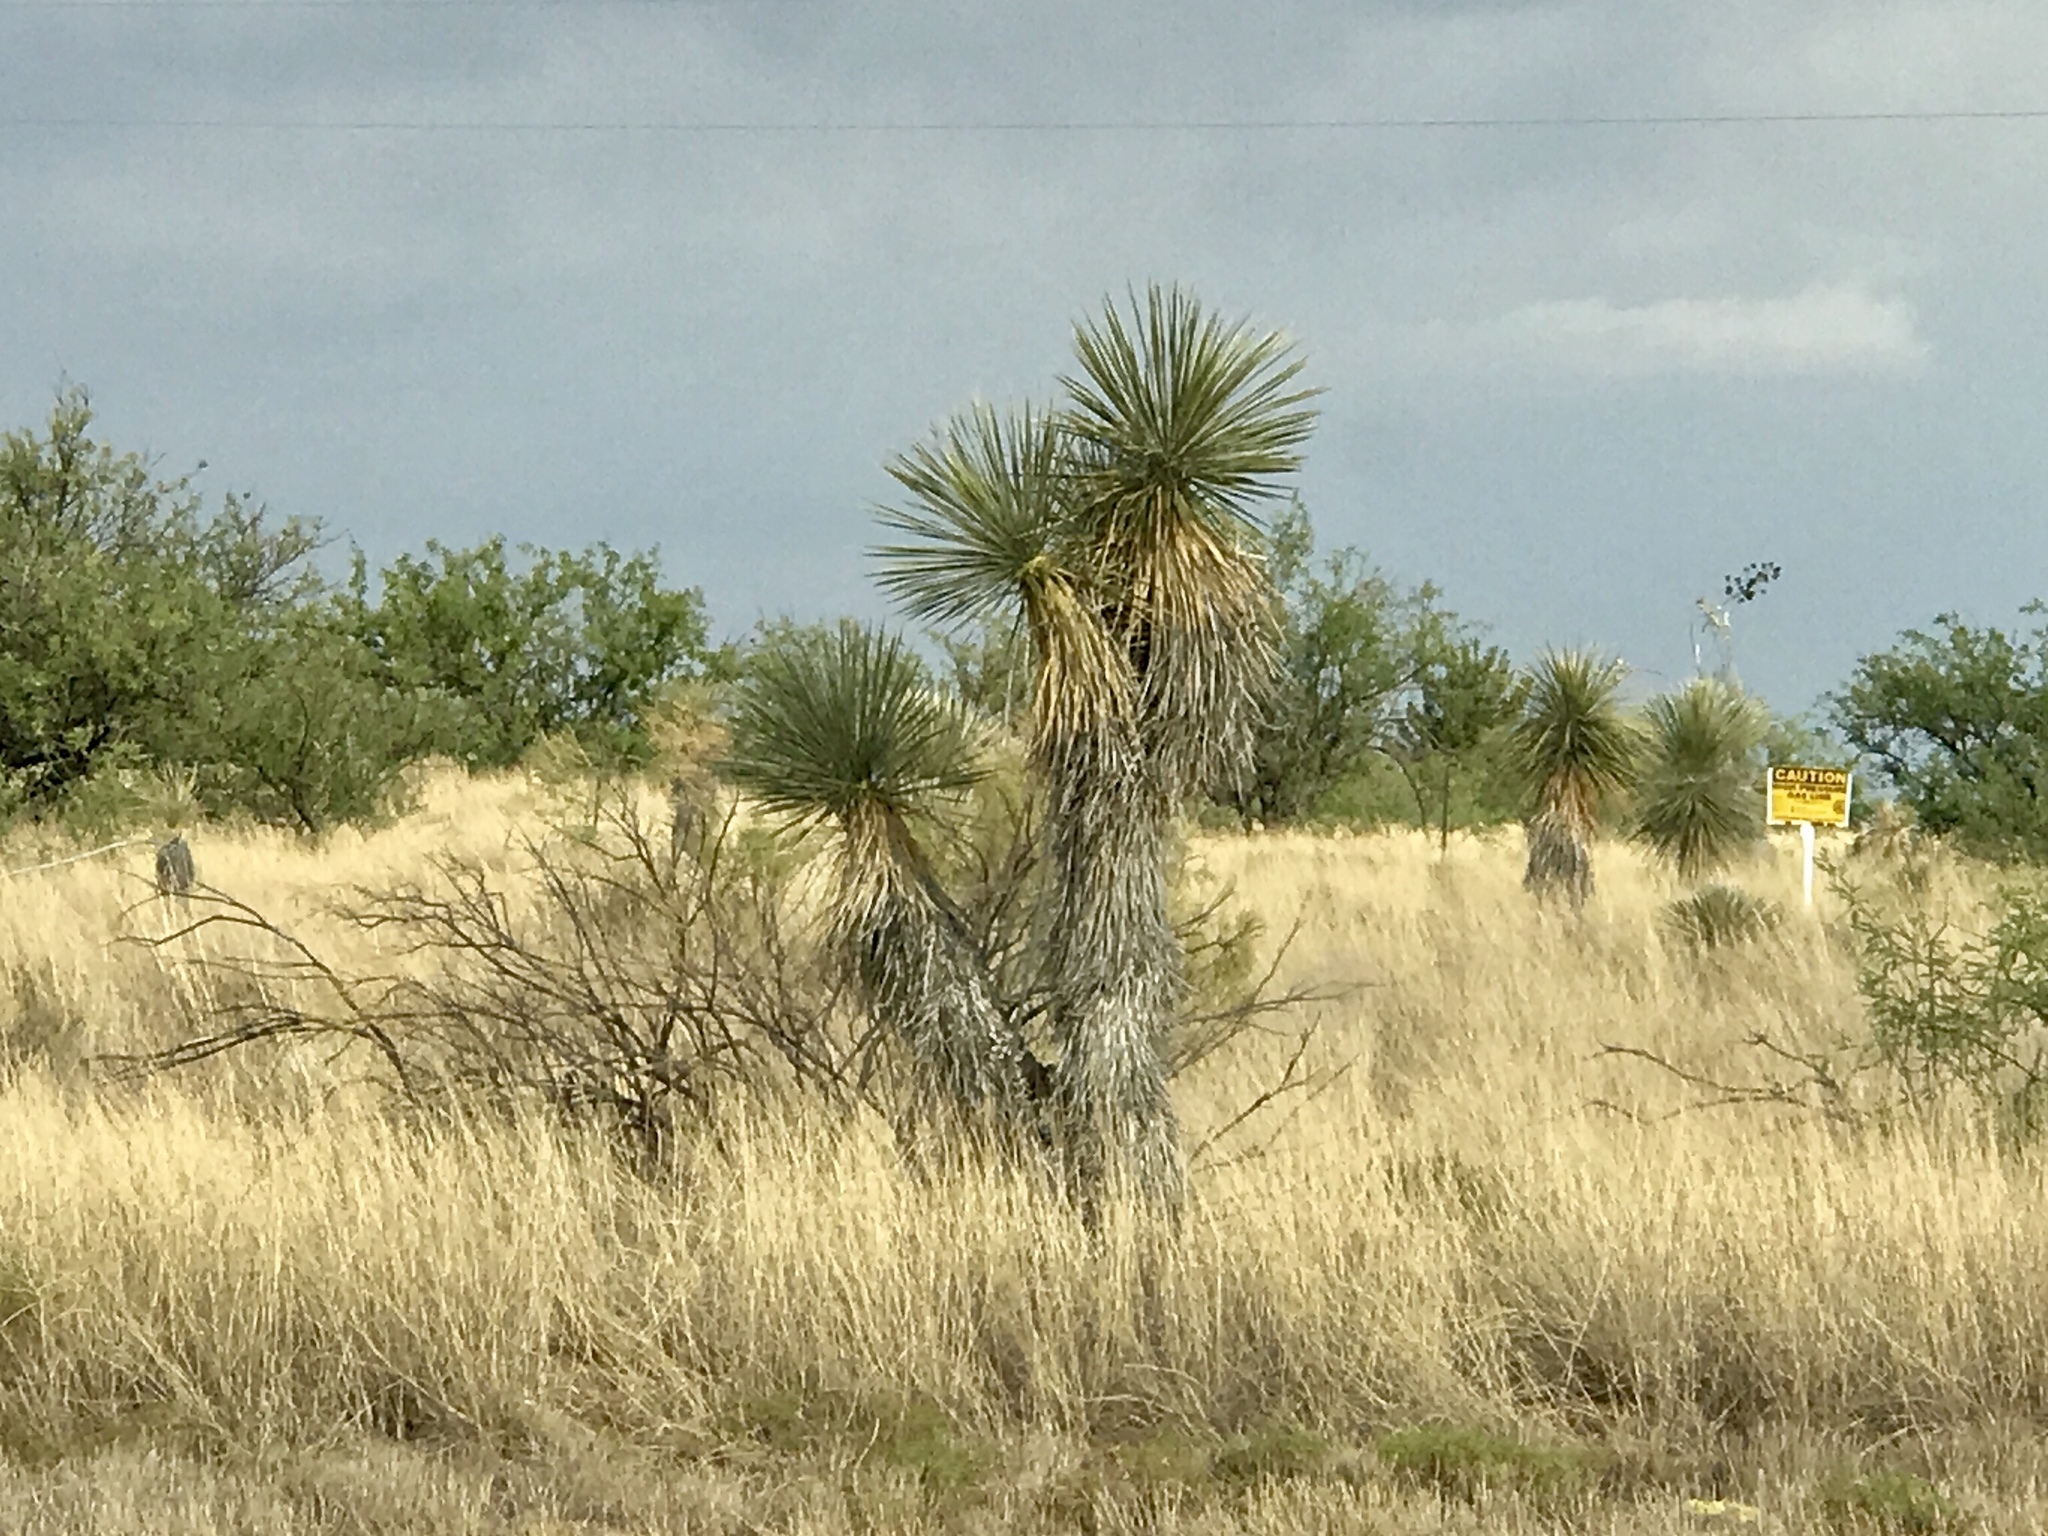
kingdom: Plantae
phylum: Tracheophyta
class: Liliopsida
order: Asparagales
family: Asparagaceae
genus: Yucca
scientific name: Yucca elata
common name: Palmella
